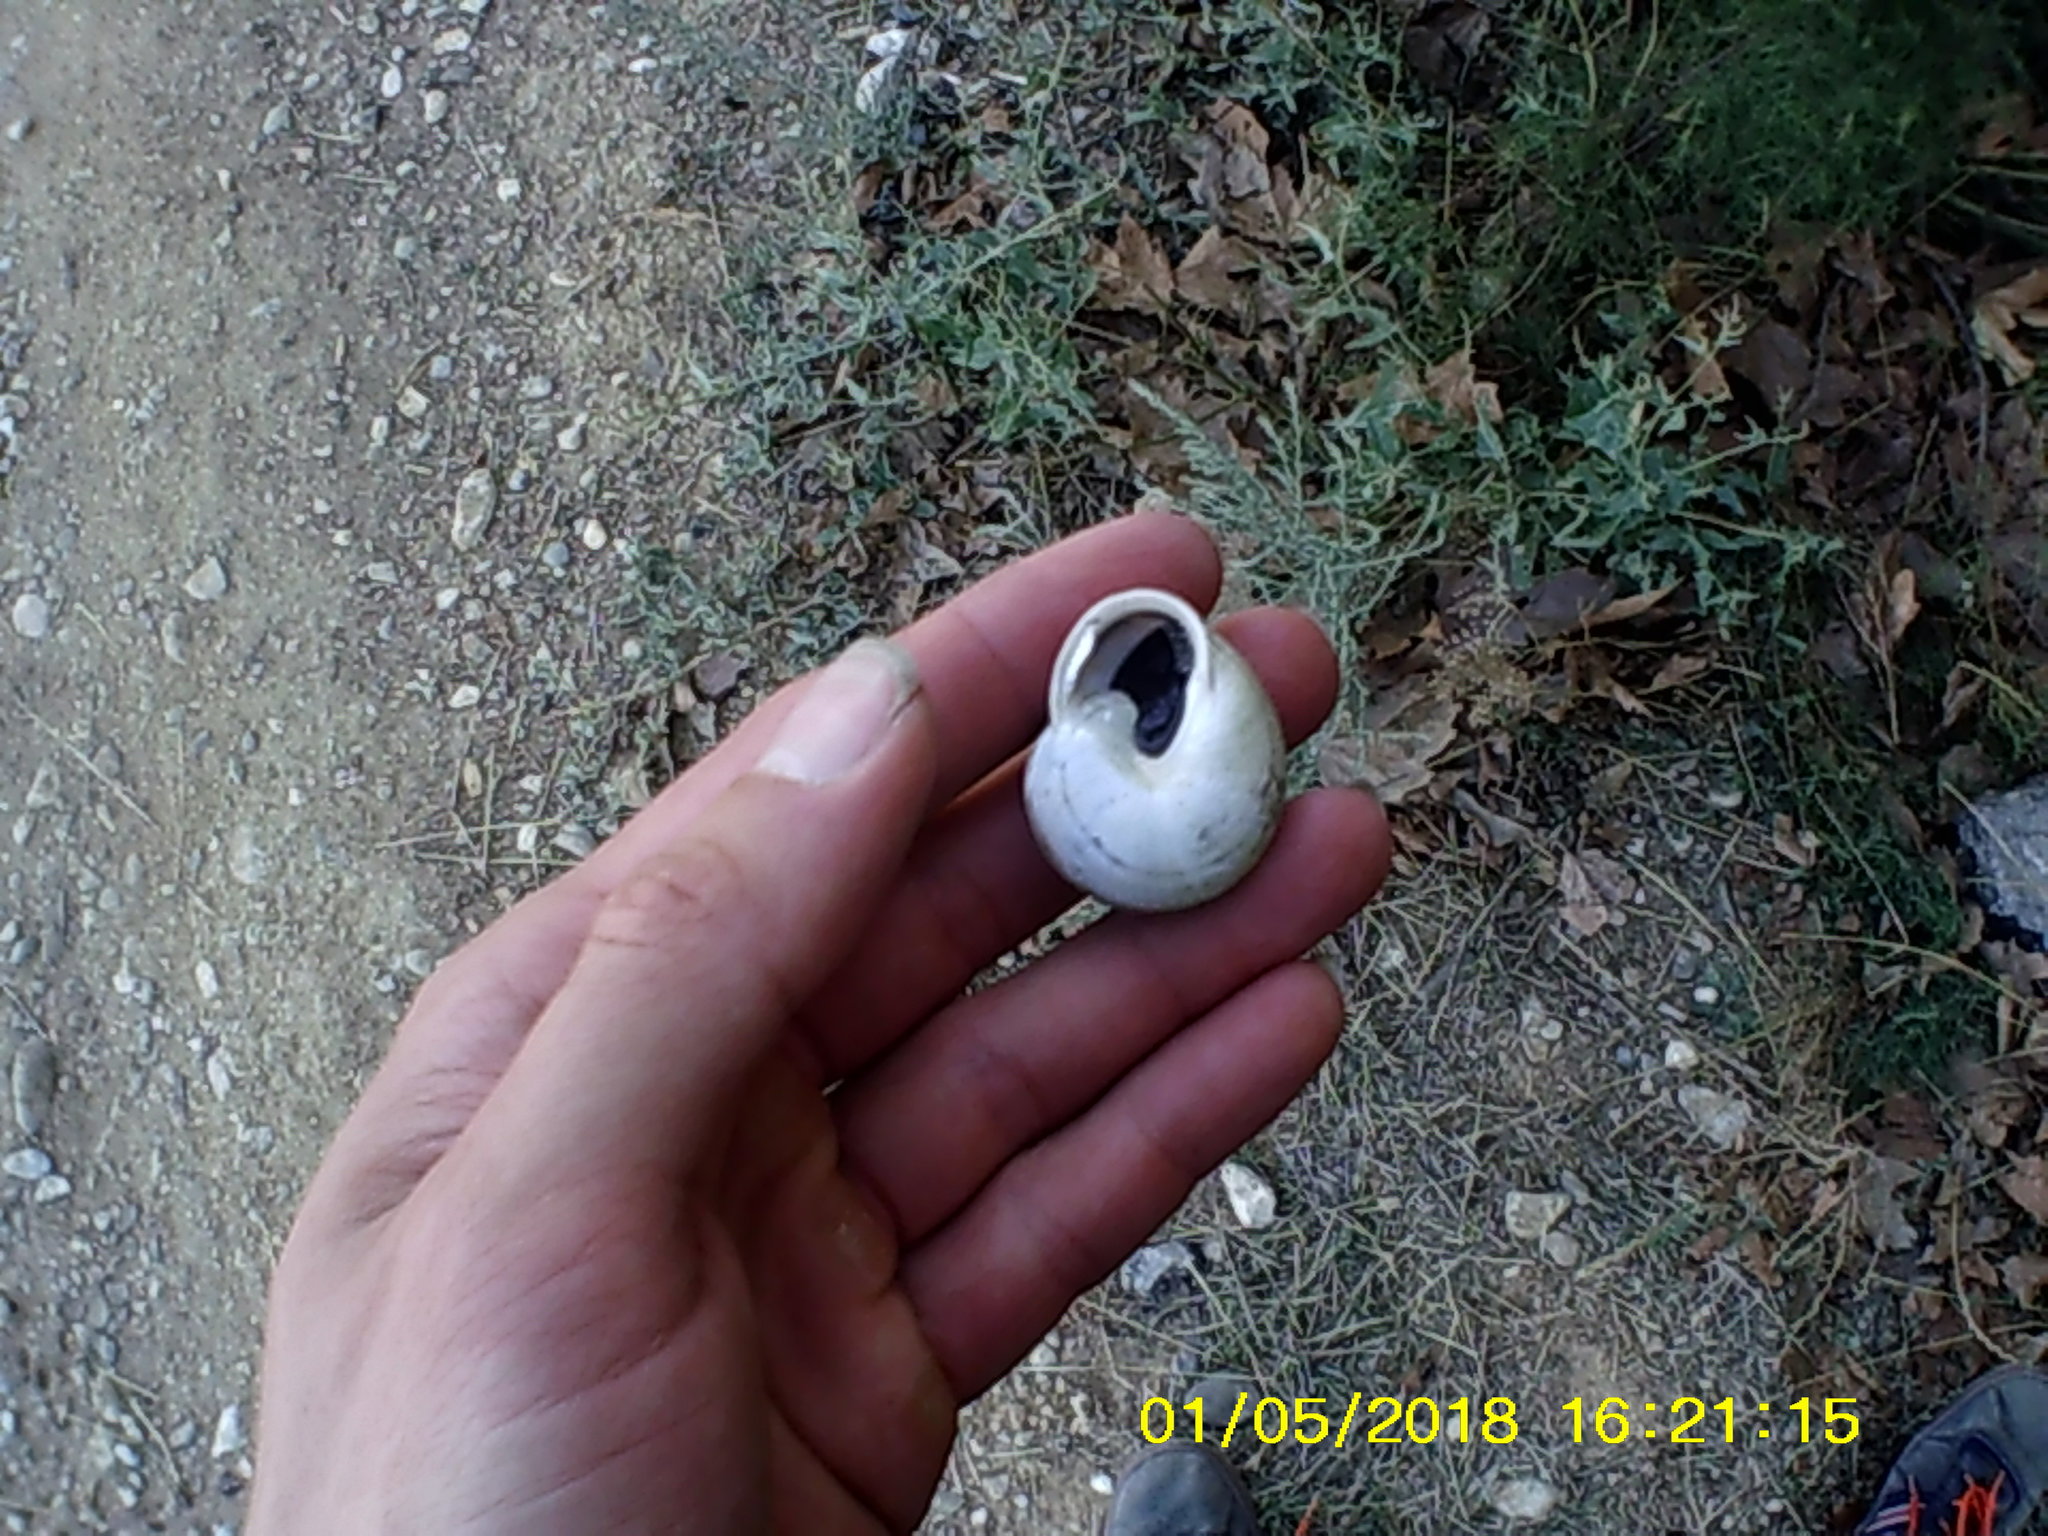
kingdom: Animalia
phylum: Mollusca
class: Gastropoda
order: Stylommatophora
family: Helicidae
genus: Eobania
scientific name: Eobania vermiculata
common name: Chocolateband snail
